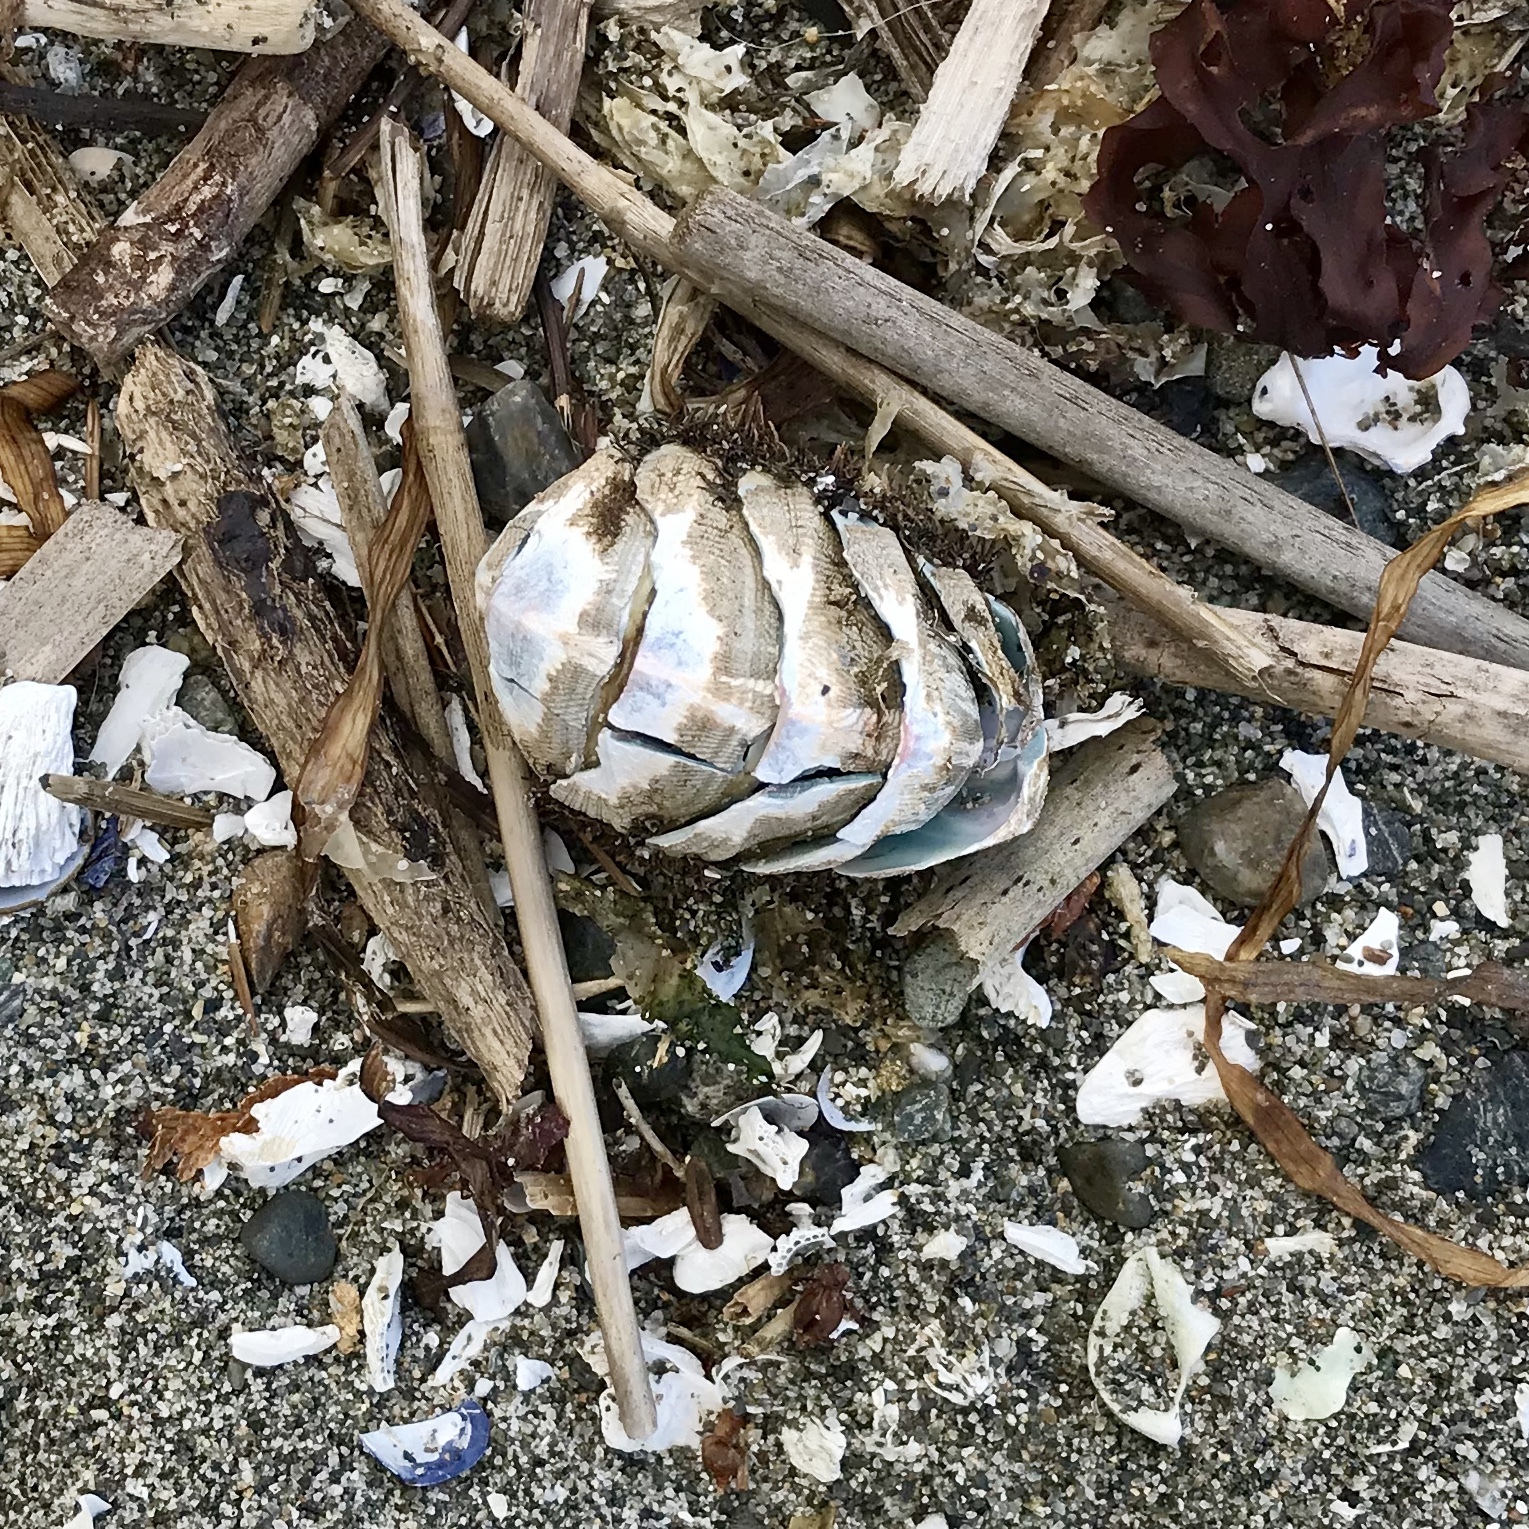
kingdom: Animalia
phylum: Mollusca
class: Polyplacophora
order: Chitonida
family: Mopaliidae
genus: Mopalia
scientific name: Mopalia muscosa
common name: Mossy chiton
